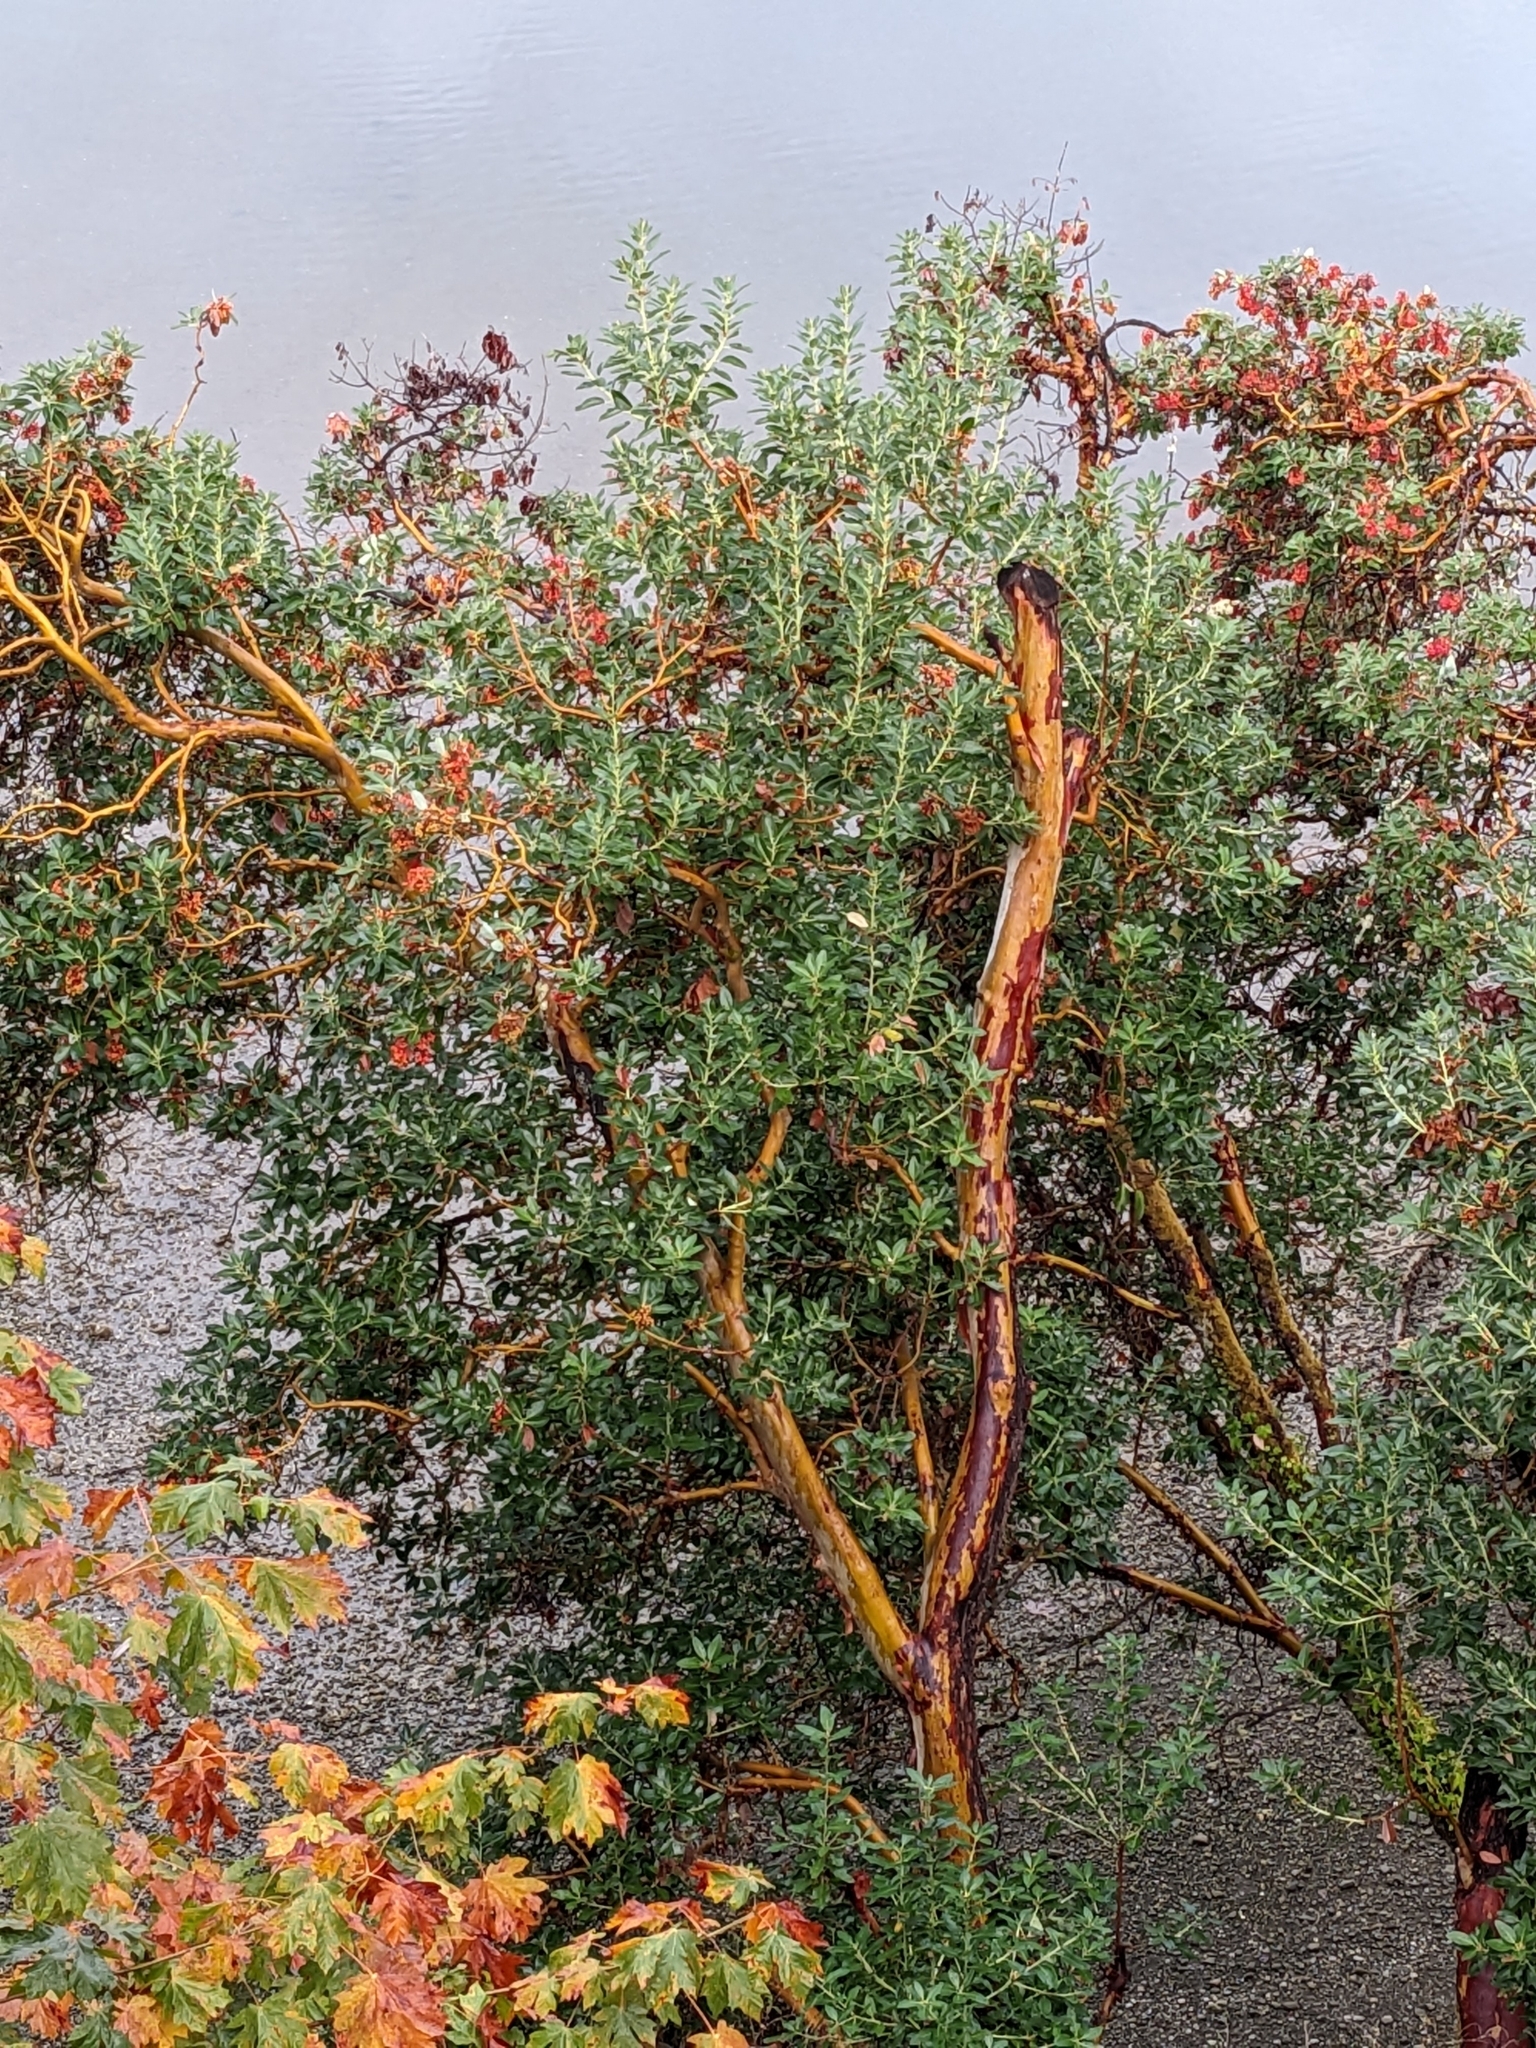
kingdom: Plantae
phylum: Tracheophyta
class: Magnoliopsida
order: Ericales
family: Ericaceae
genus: Arbutus
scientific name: Arbutus menziesii
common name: Pacific madrone
